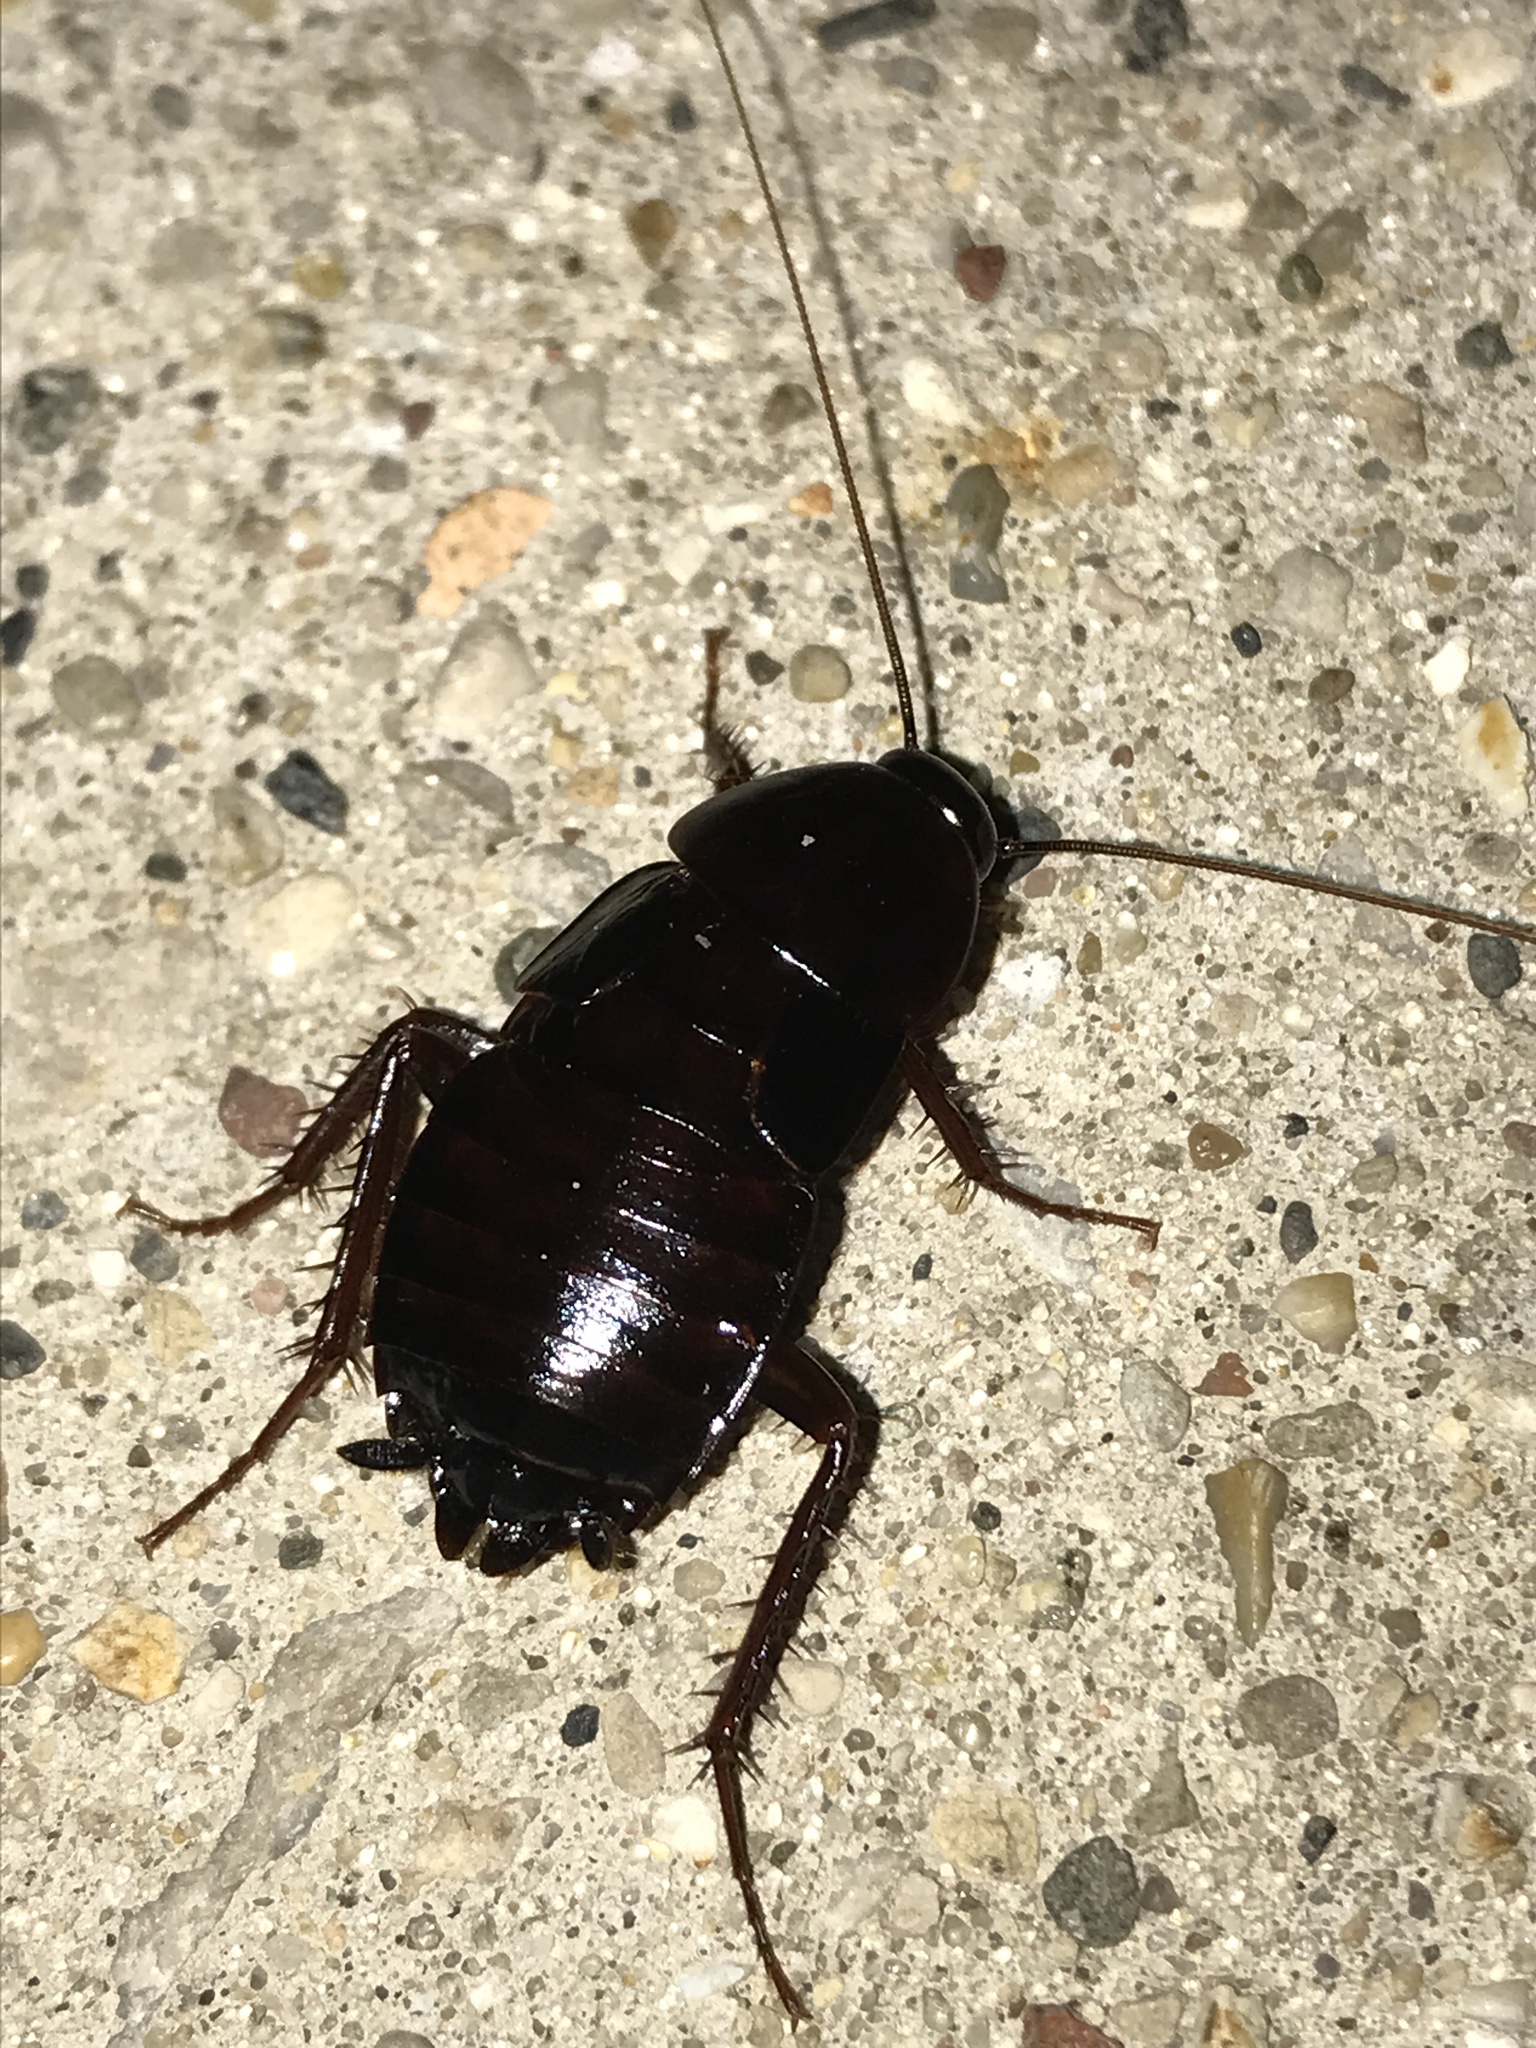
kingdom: Animalia
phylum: Arthropoda
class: Insecta
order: Blattodea
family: Blattidae
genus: Blatta
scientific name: Blatta orientalis
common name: Oriental cockroach
